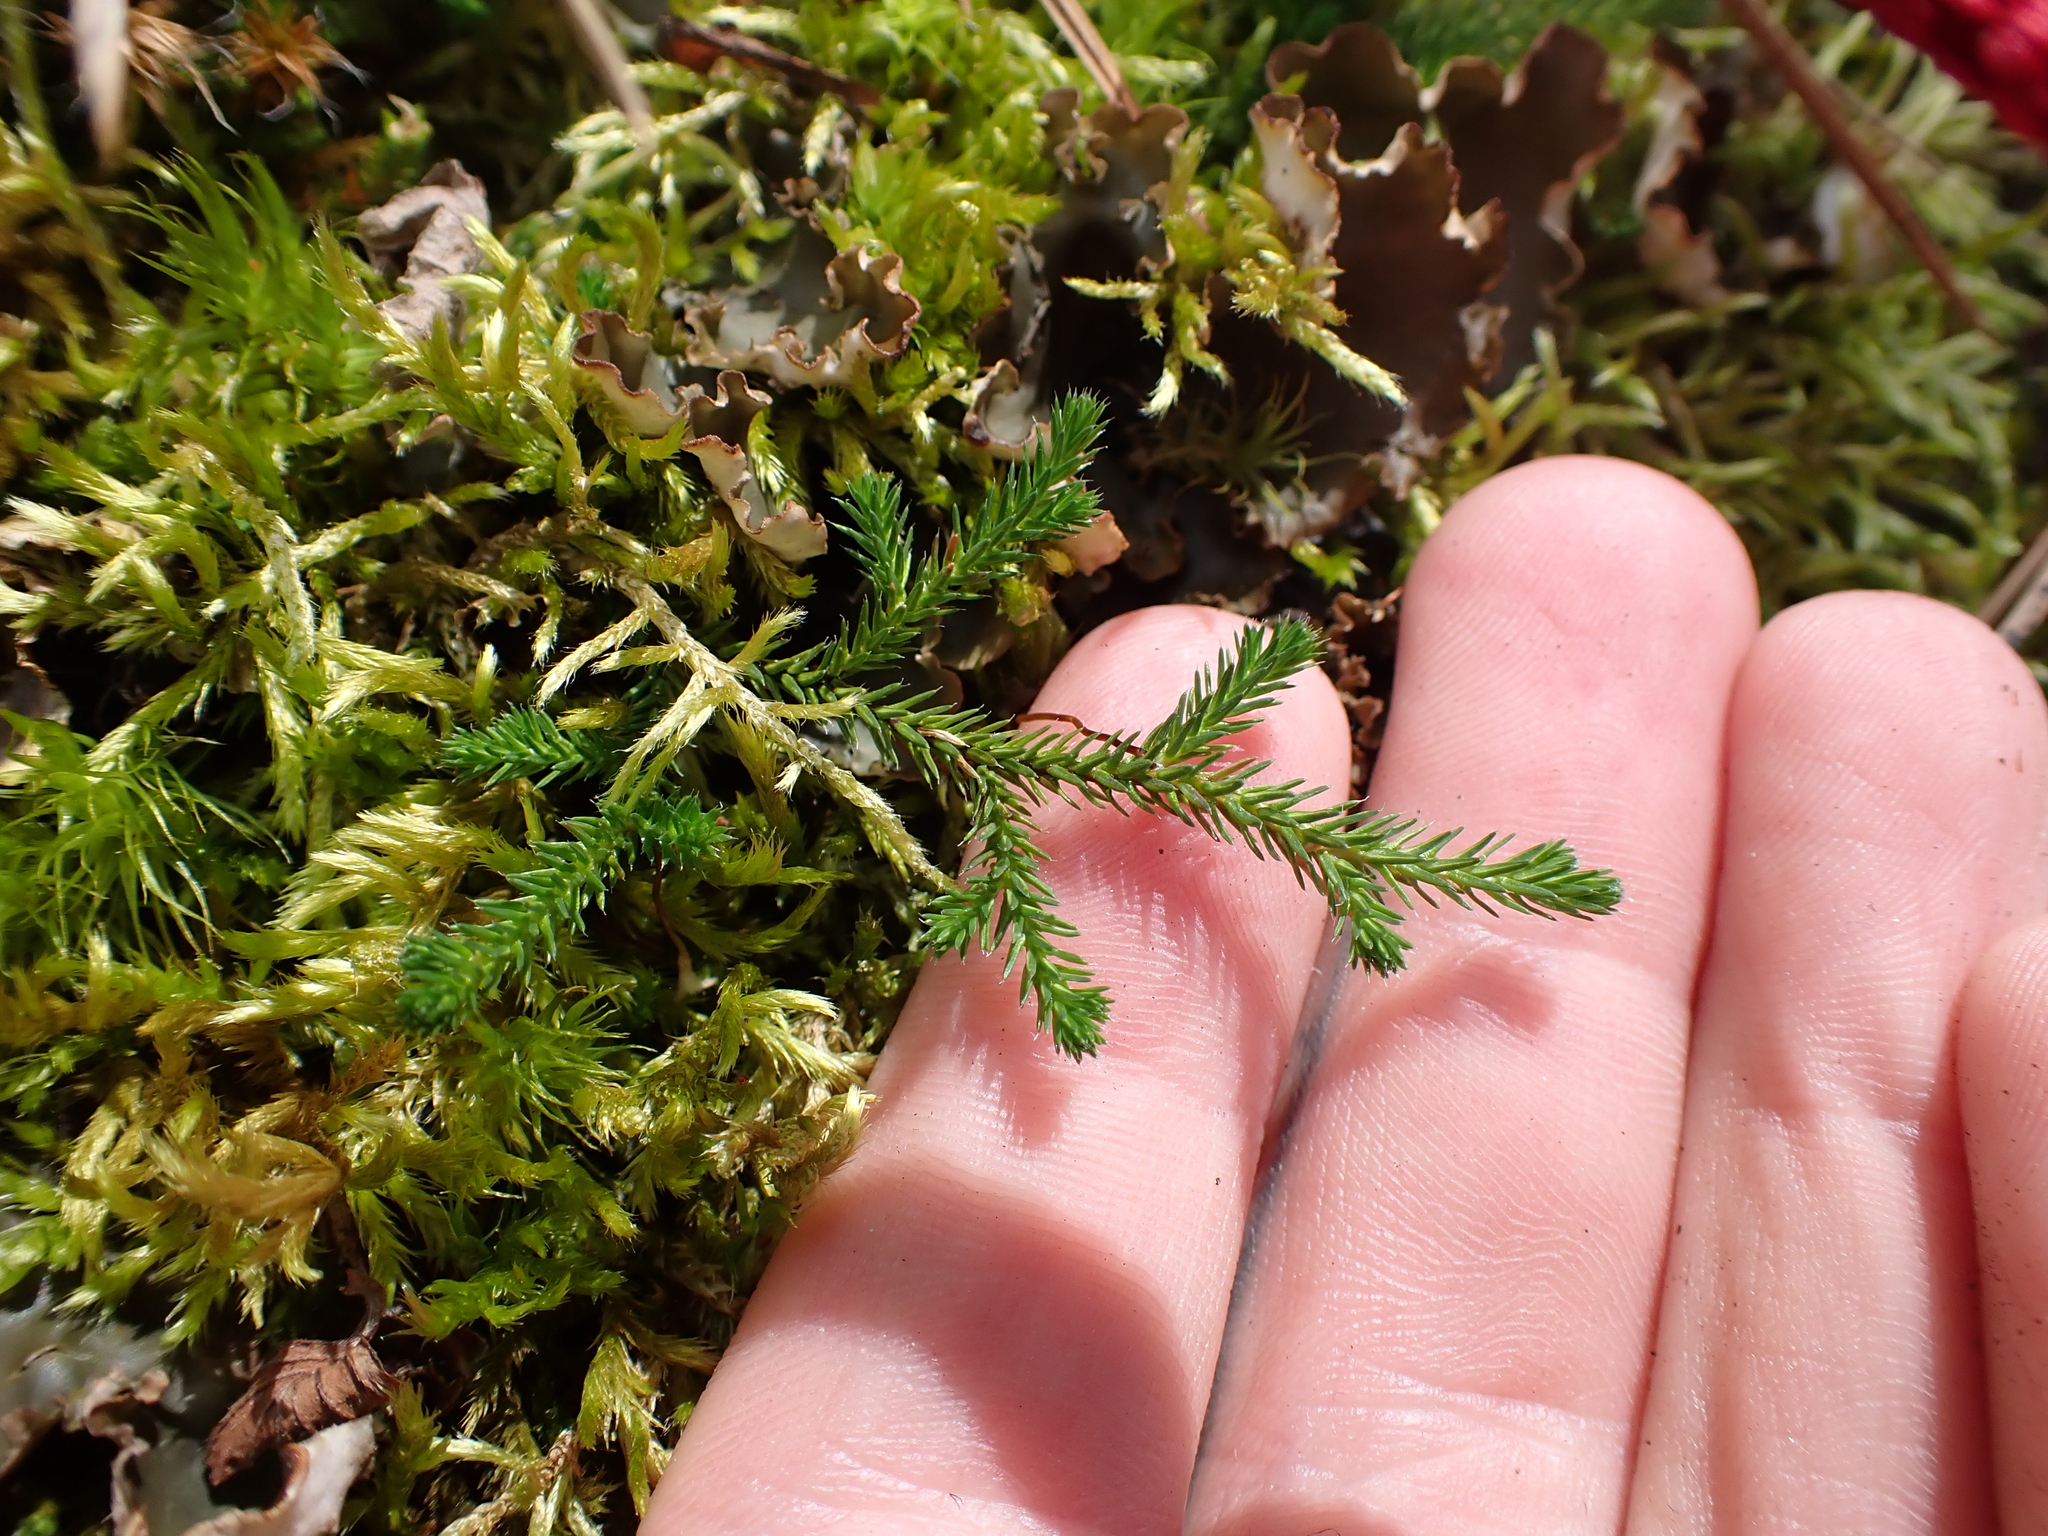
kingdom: Plantae
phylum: Tracheophyta
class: Lycopodiopsida
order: Selaginellales
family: Selaginellaceae
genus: Selaginella
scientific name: Selaginella wallacei
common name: Wallace's selaginella
